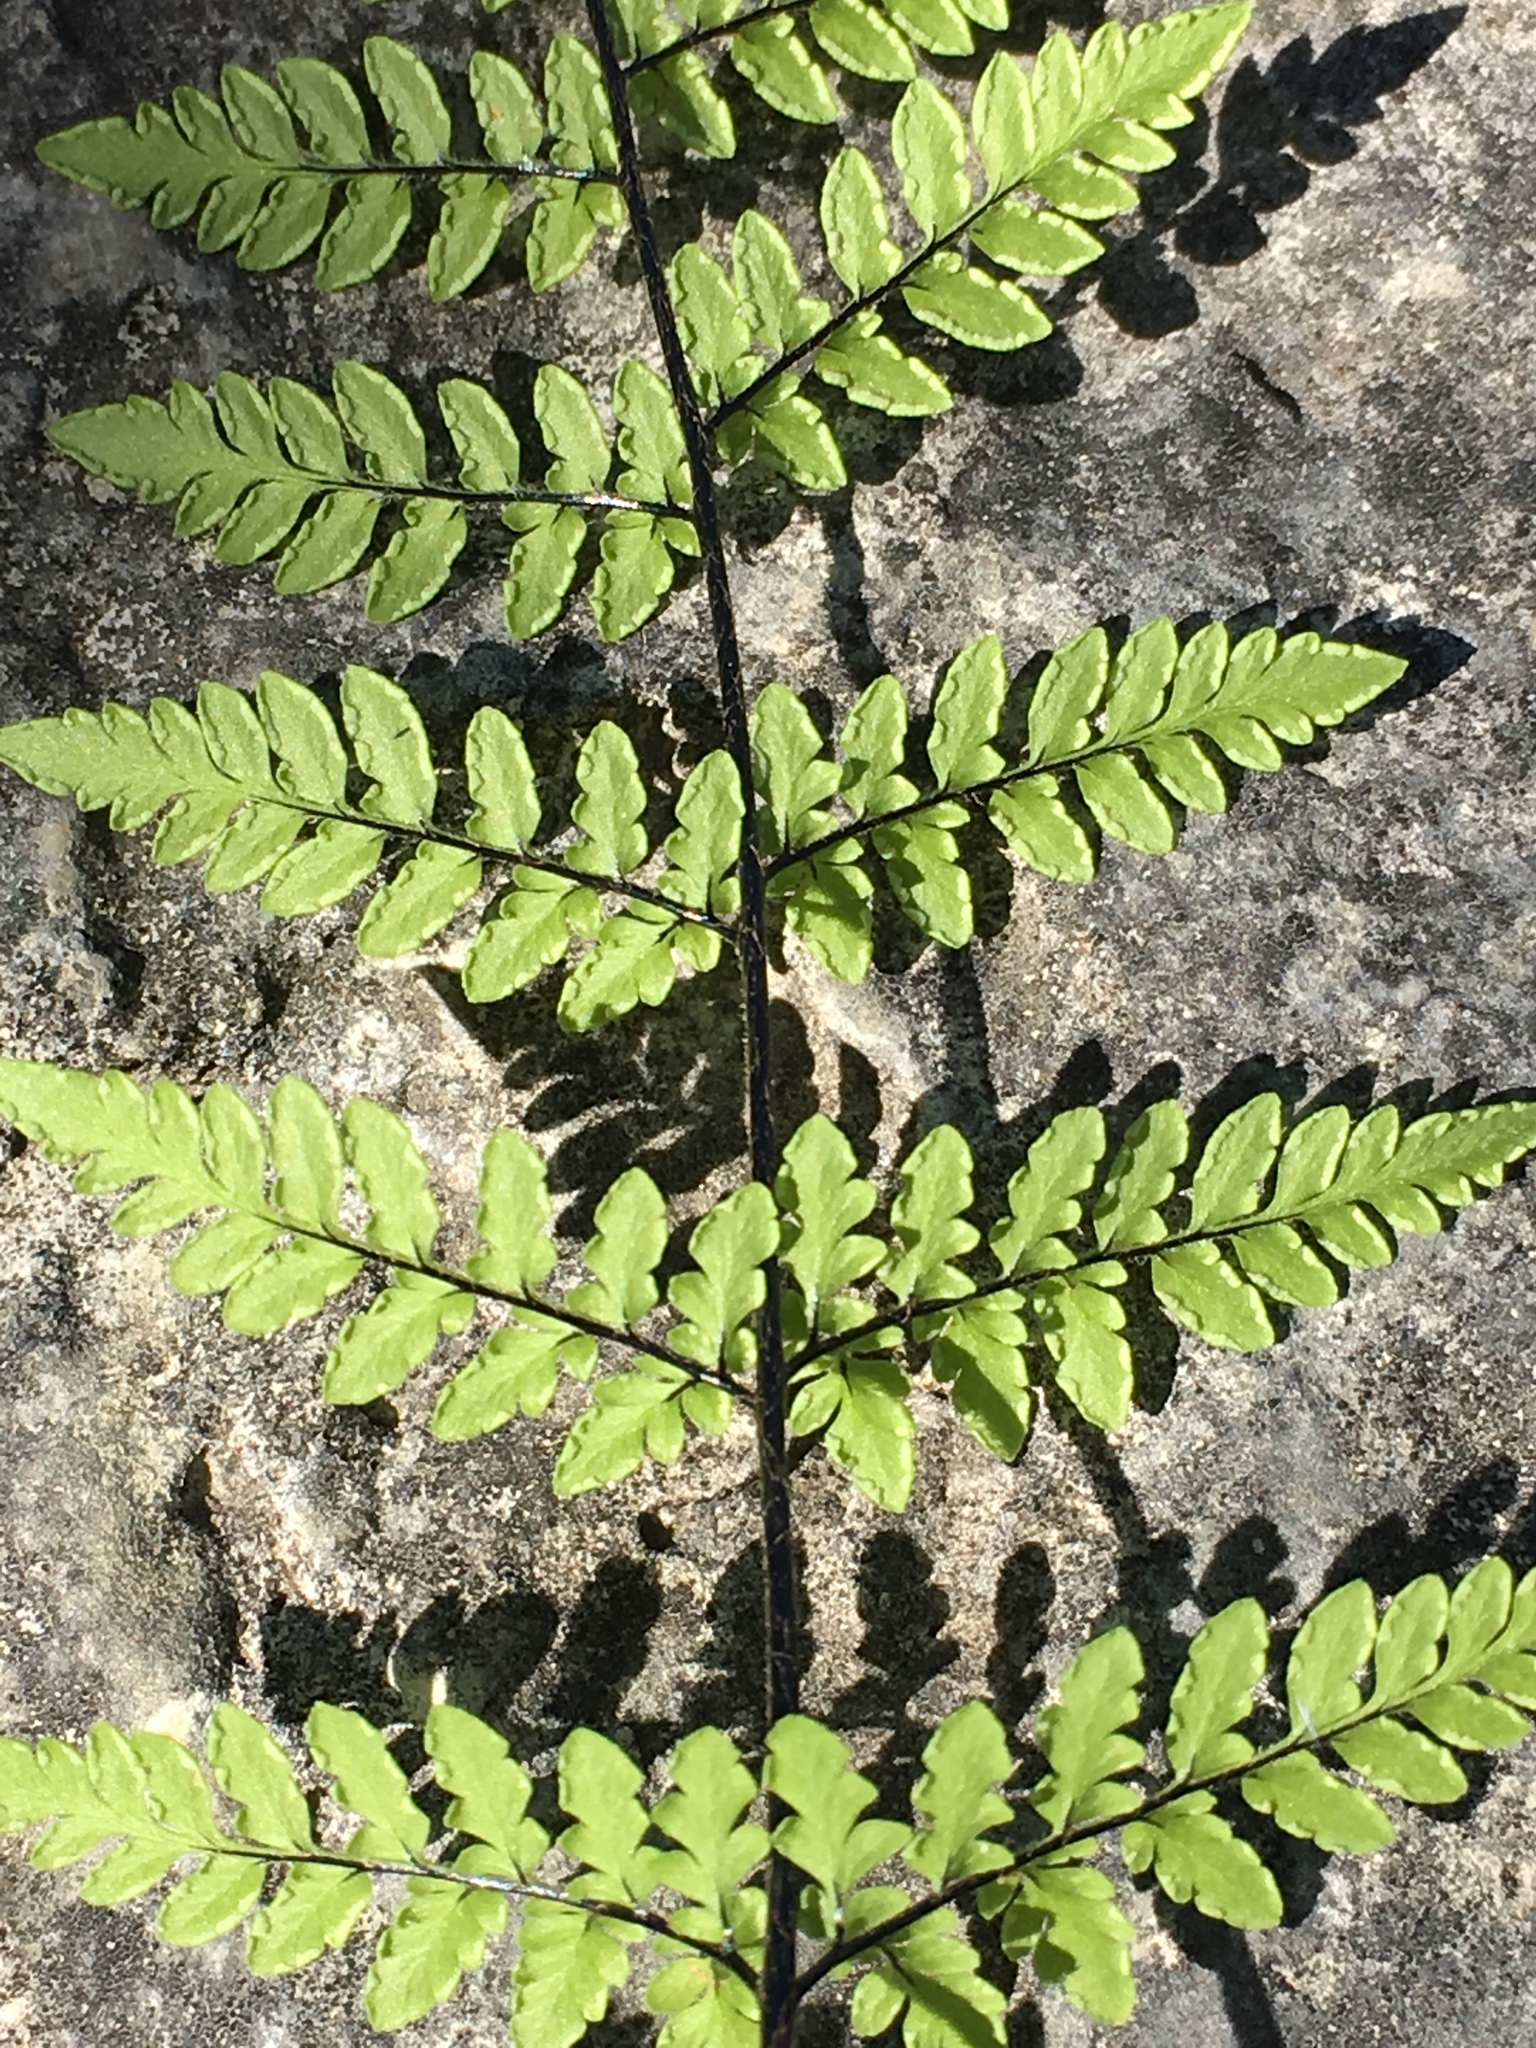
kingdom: Plantae
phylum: Tracheophyta
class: Polypodiopsida
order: Polypodiales
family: Pteridaceae
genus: Myriopteris
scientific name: Myriopteris alabamensis
